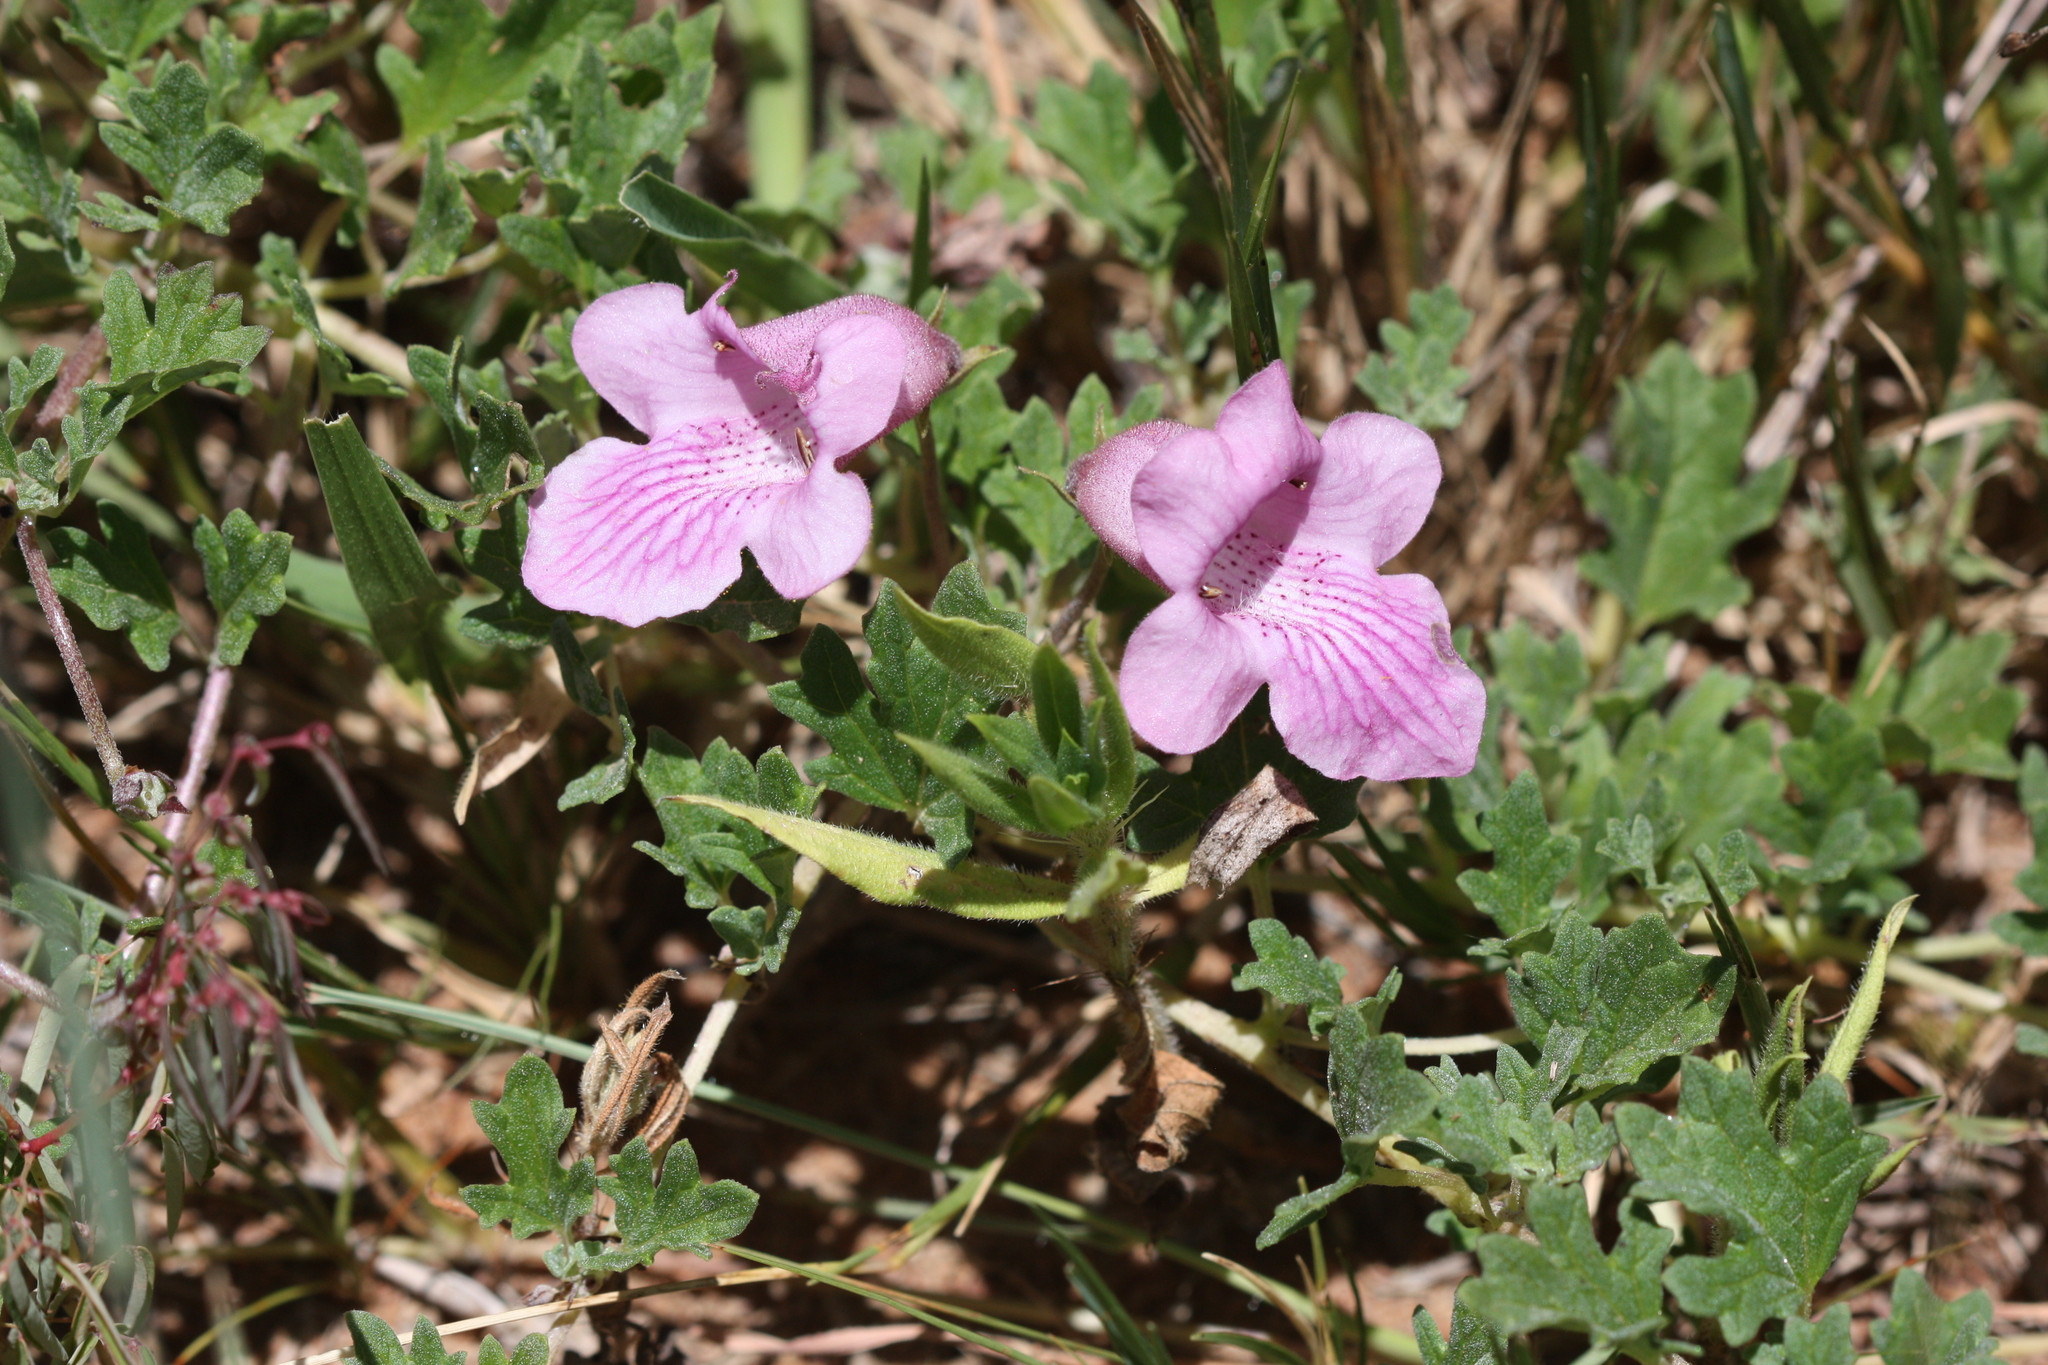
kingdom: Plantae
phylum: Tracheophyta
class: Magnoliopsida
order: Lamiales
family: Pedaliaceae
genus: Dicerocaryum
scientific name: Dicerocaryum senecioides
